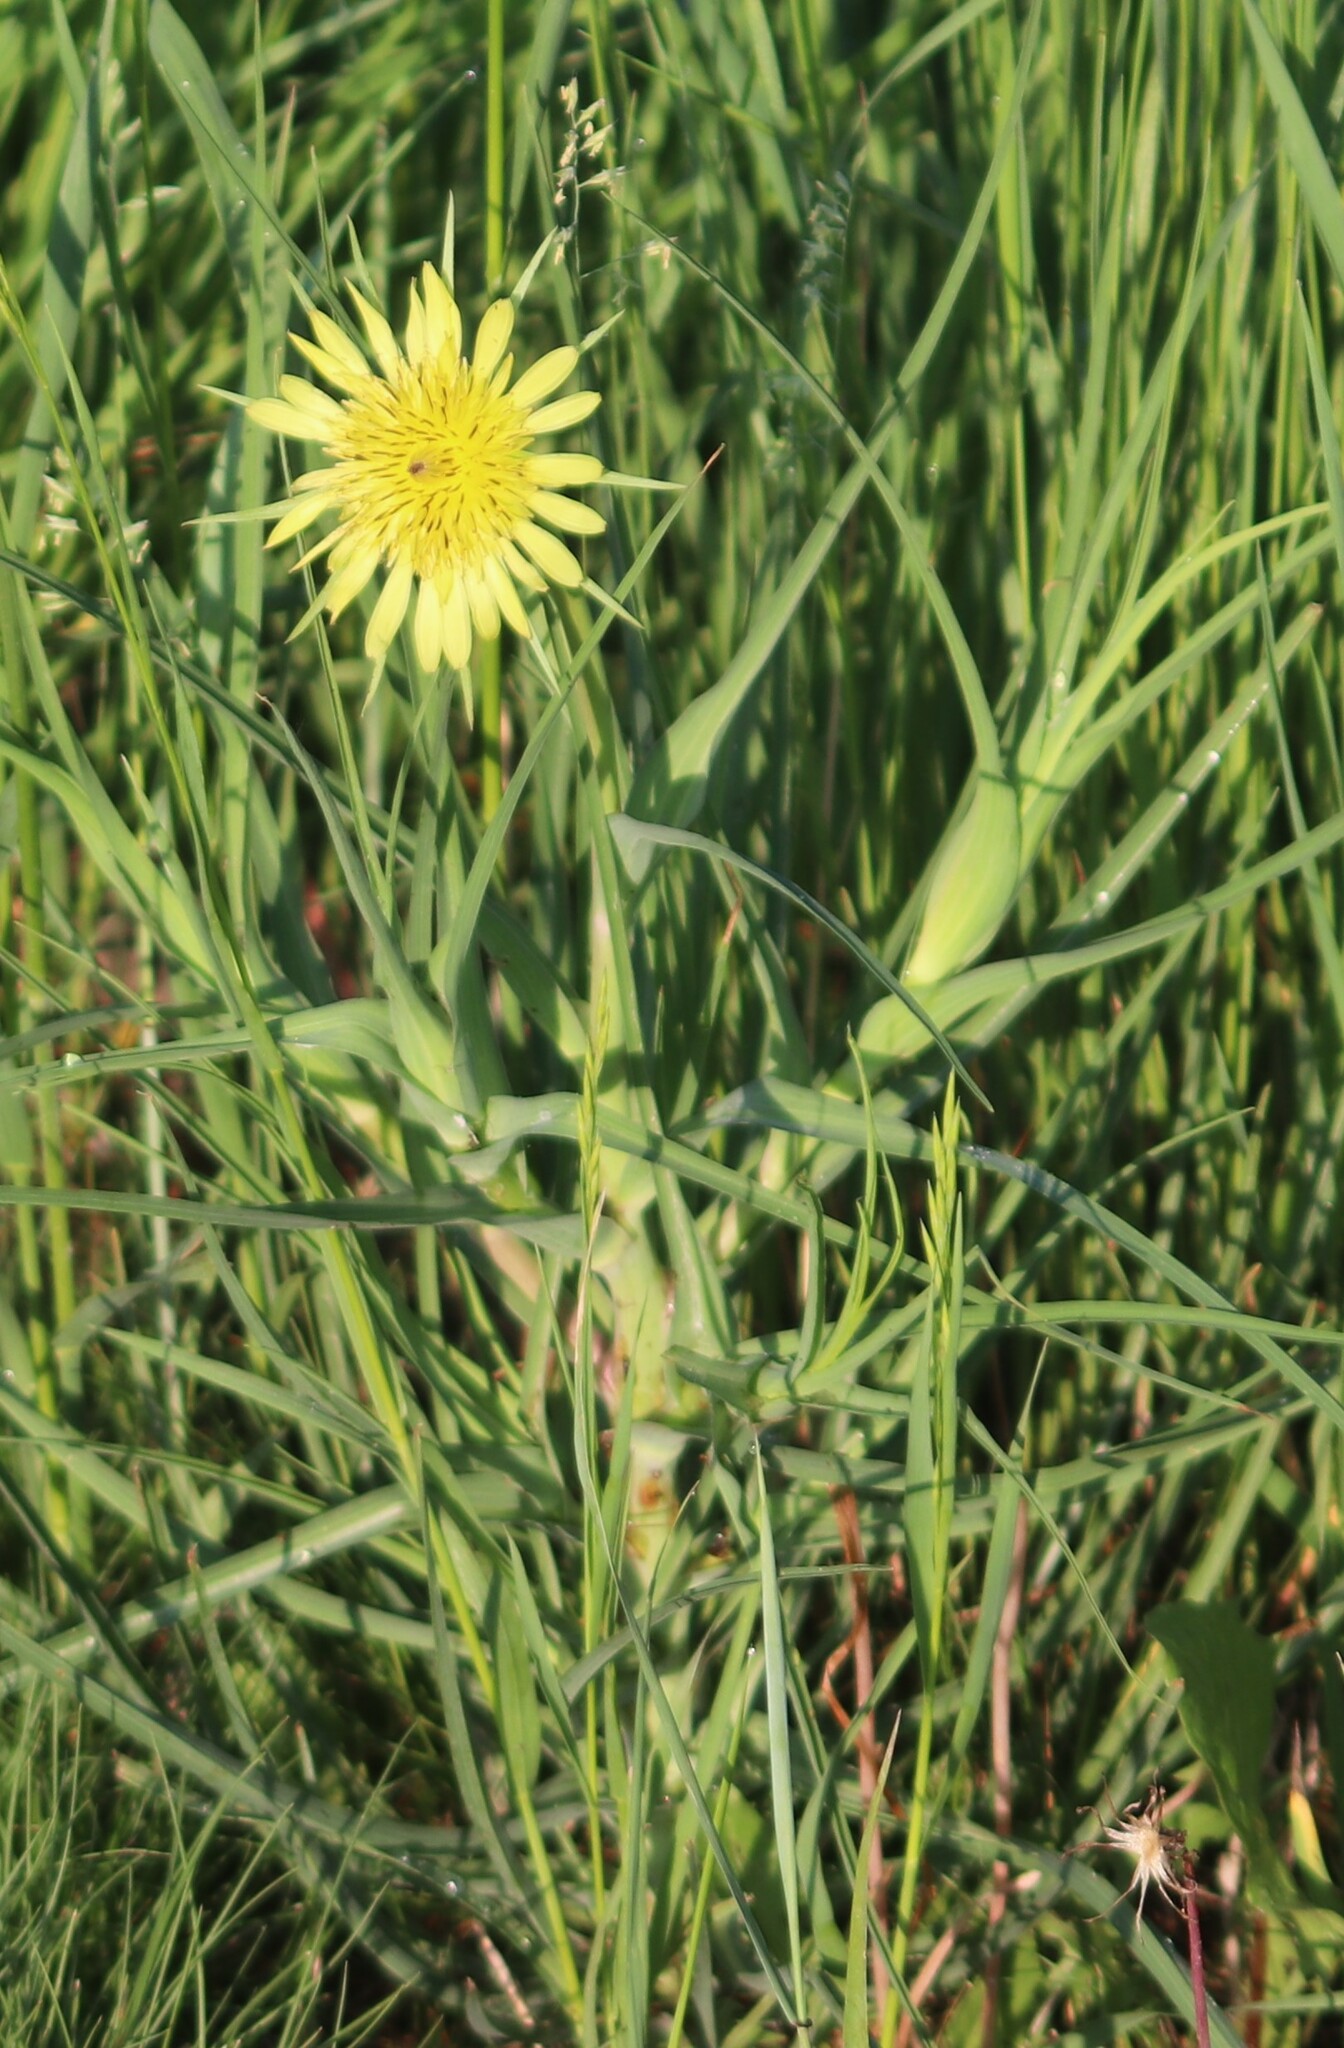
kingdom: Plantae
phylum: Tracheophyta
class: Magnoliopsida
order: Asterales
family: Asteraceae
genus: Tragopogon
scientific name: Tragopogon dubius
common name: Yellow salsify
